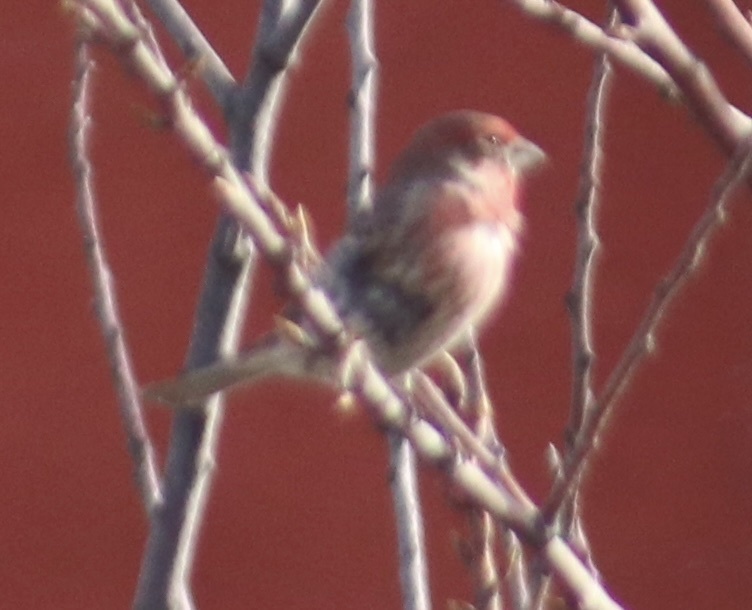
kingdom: Animalia
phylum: Chordata
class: Aves
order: Passeriformes
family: Fringillidae
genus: Haemorhous
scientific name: Haemorhous mexicanus
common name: House finch
